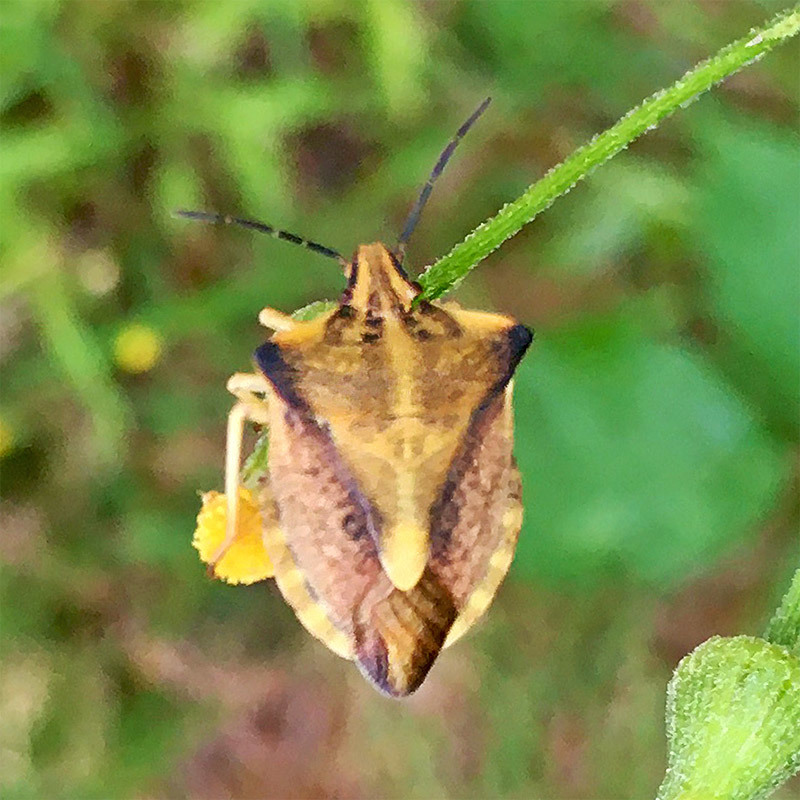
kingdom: Animalia
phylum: Arthropoda
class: Insecta
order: Hemiptera
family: Pentatomidae
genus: Carpocoris
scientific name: Carpocoris fuscispinus
